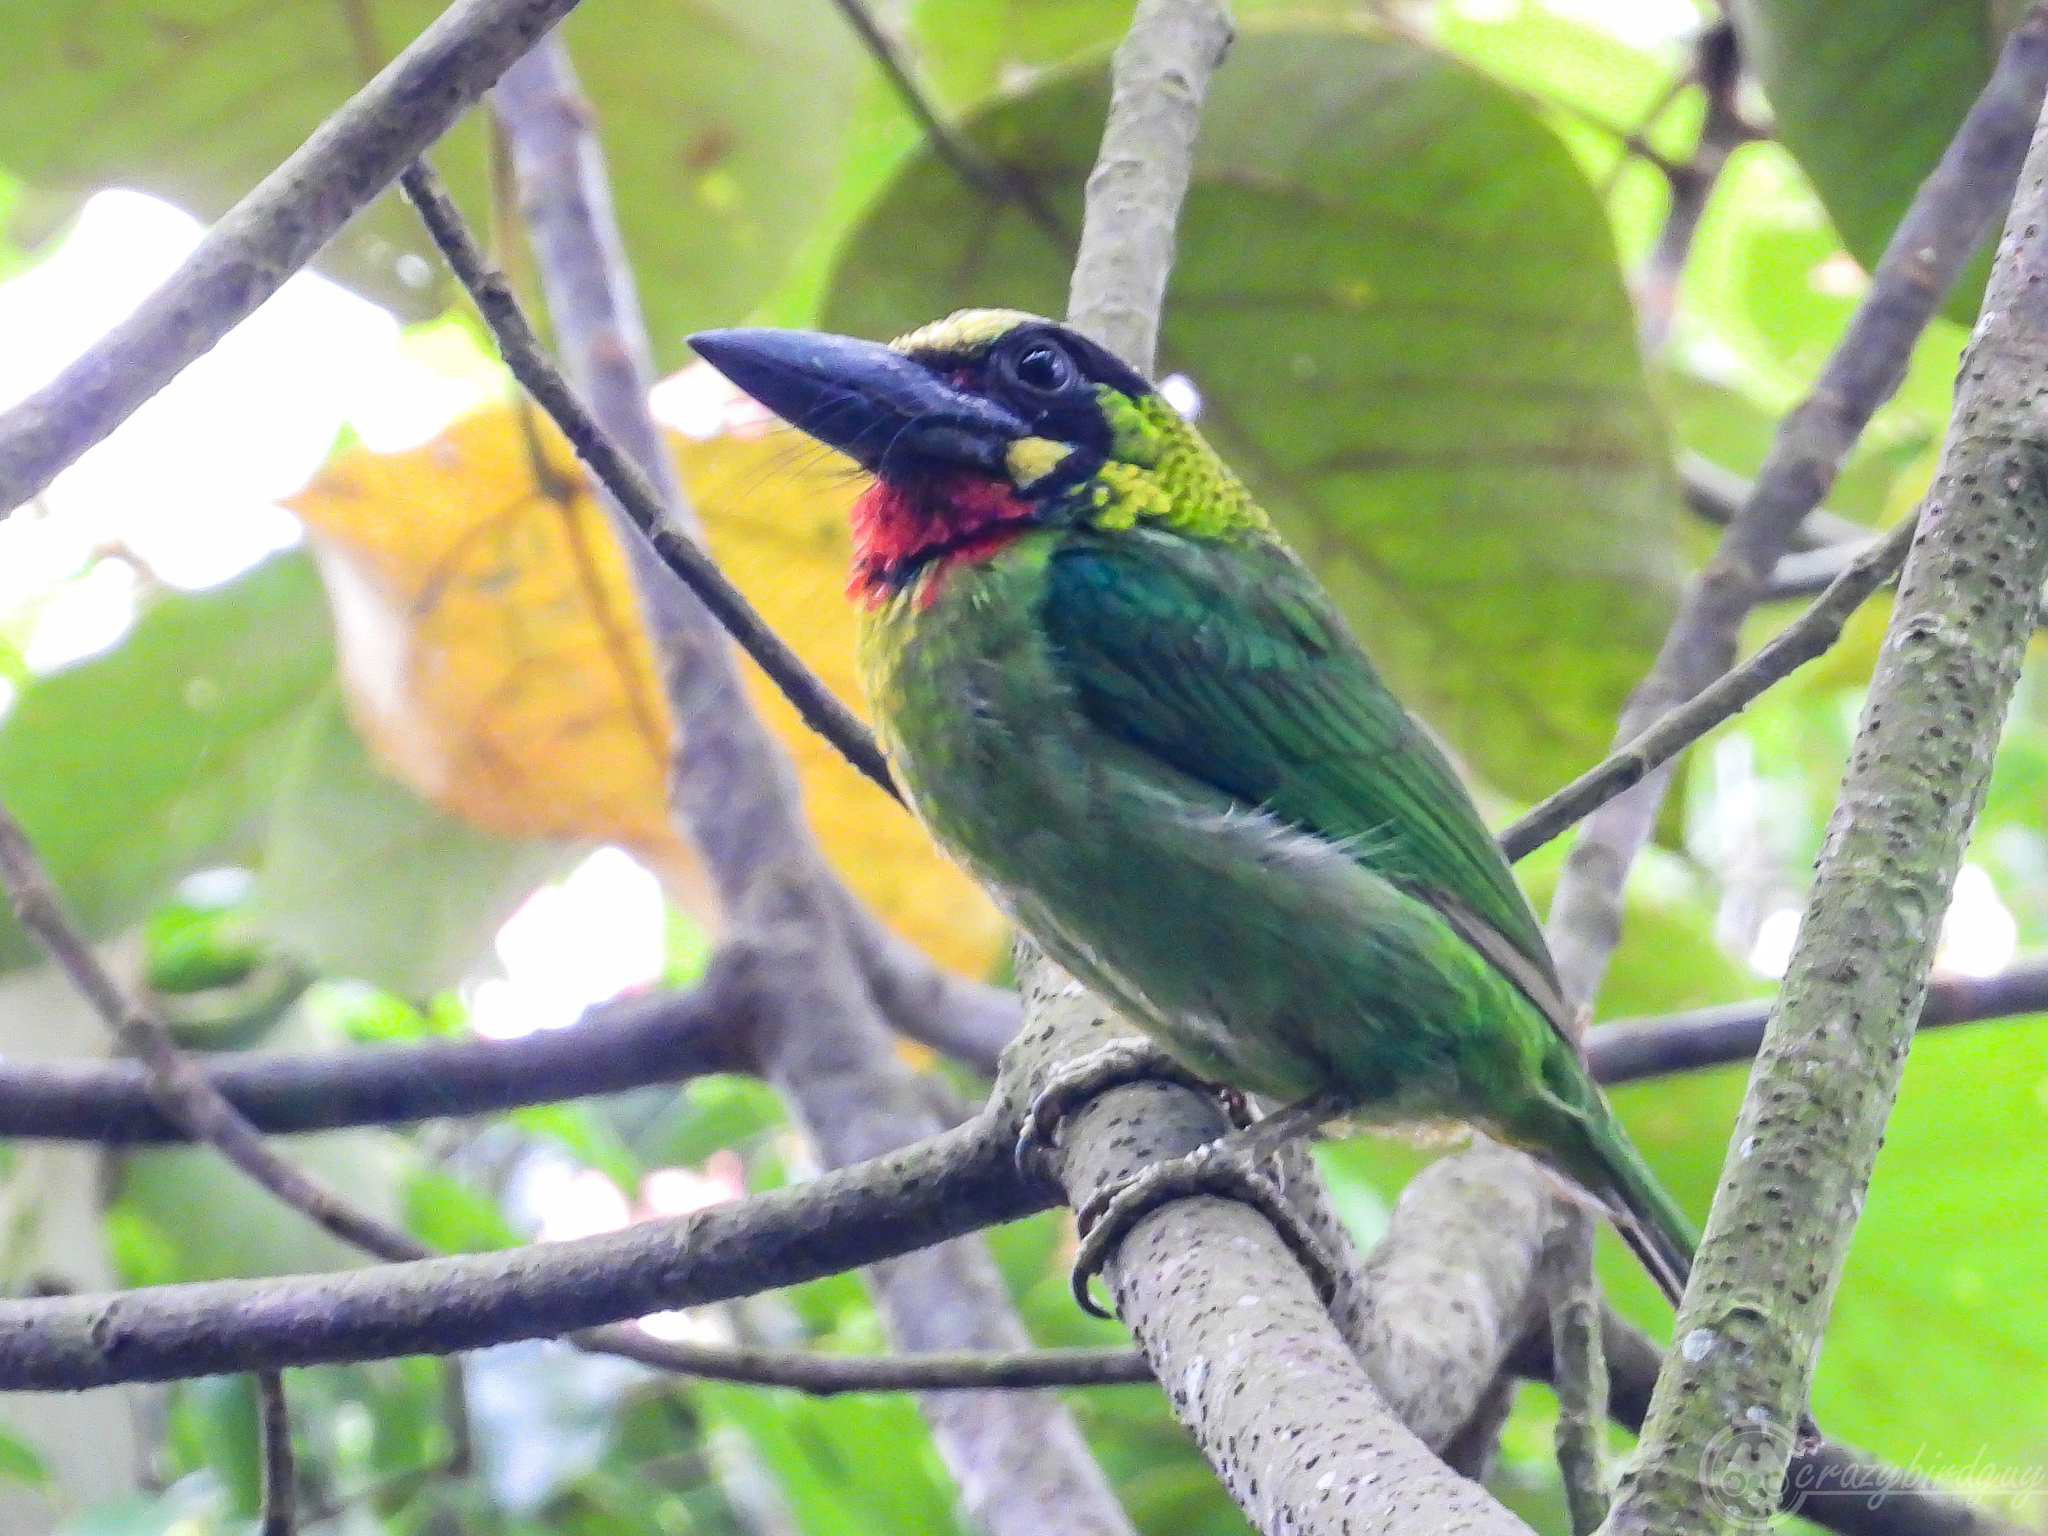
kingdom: Animalia
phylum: Chordata
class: Aves
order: Piciformes
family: Megalaimidae
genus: Psilopogon
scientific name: Psilopogon javensis
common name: Black-banded barbet
